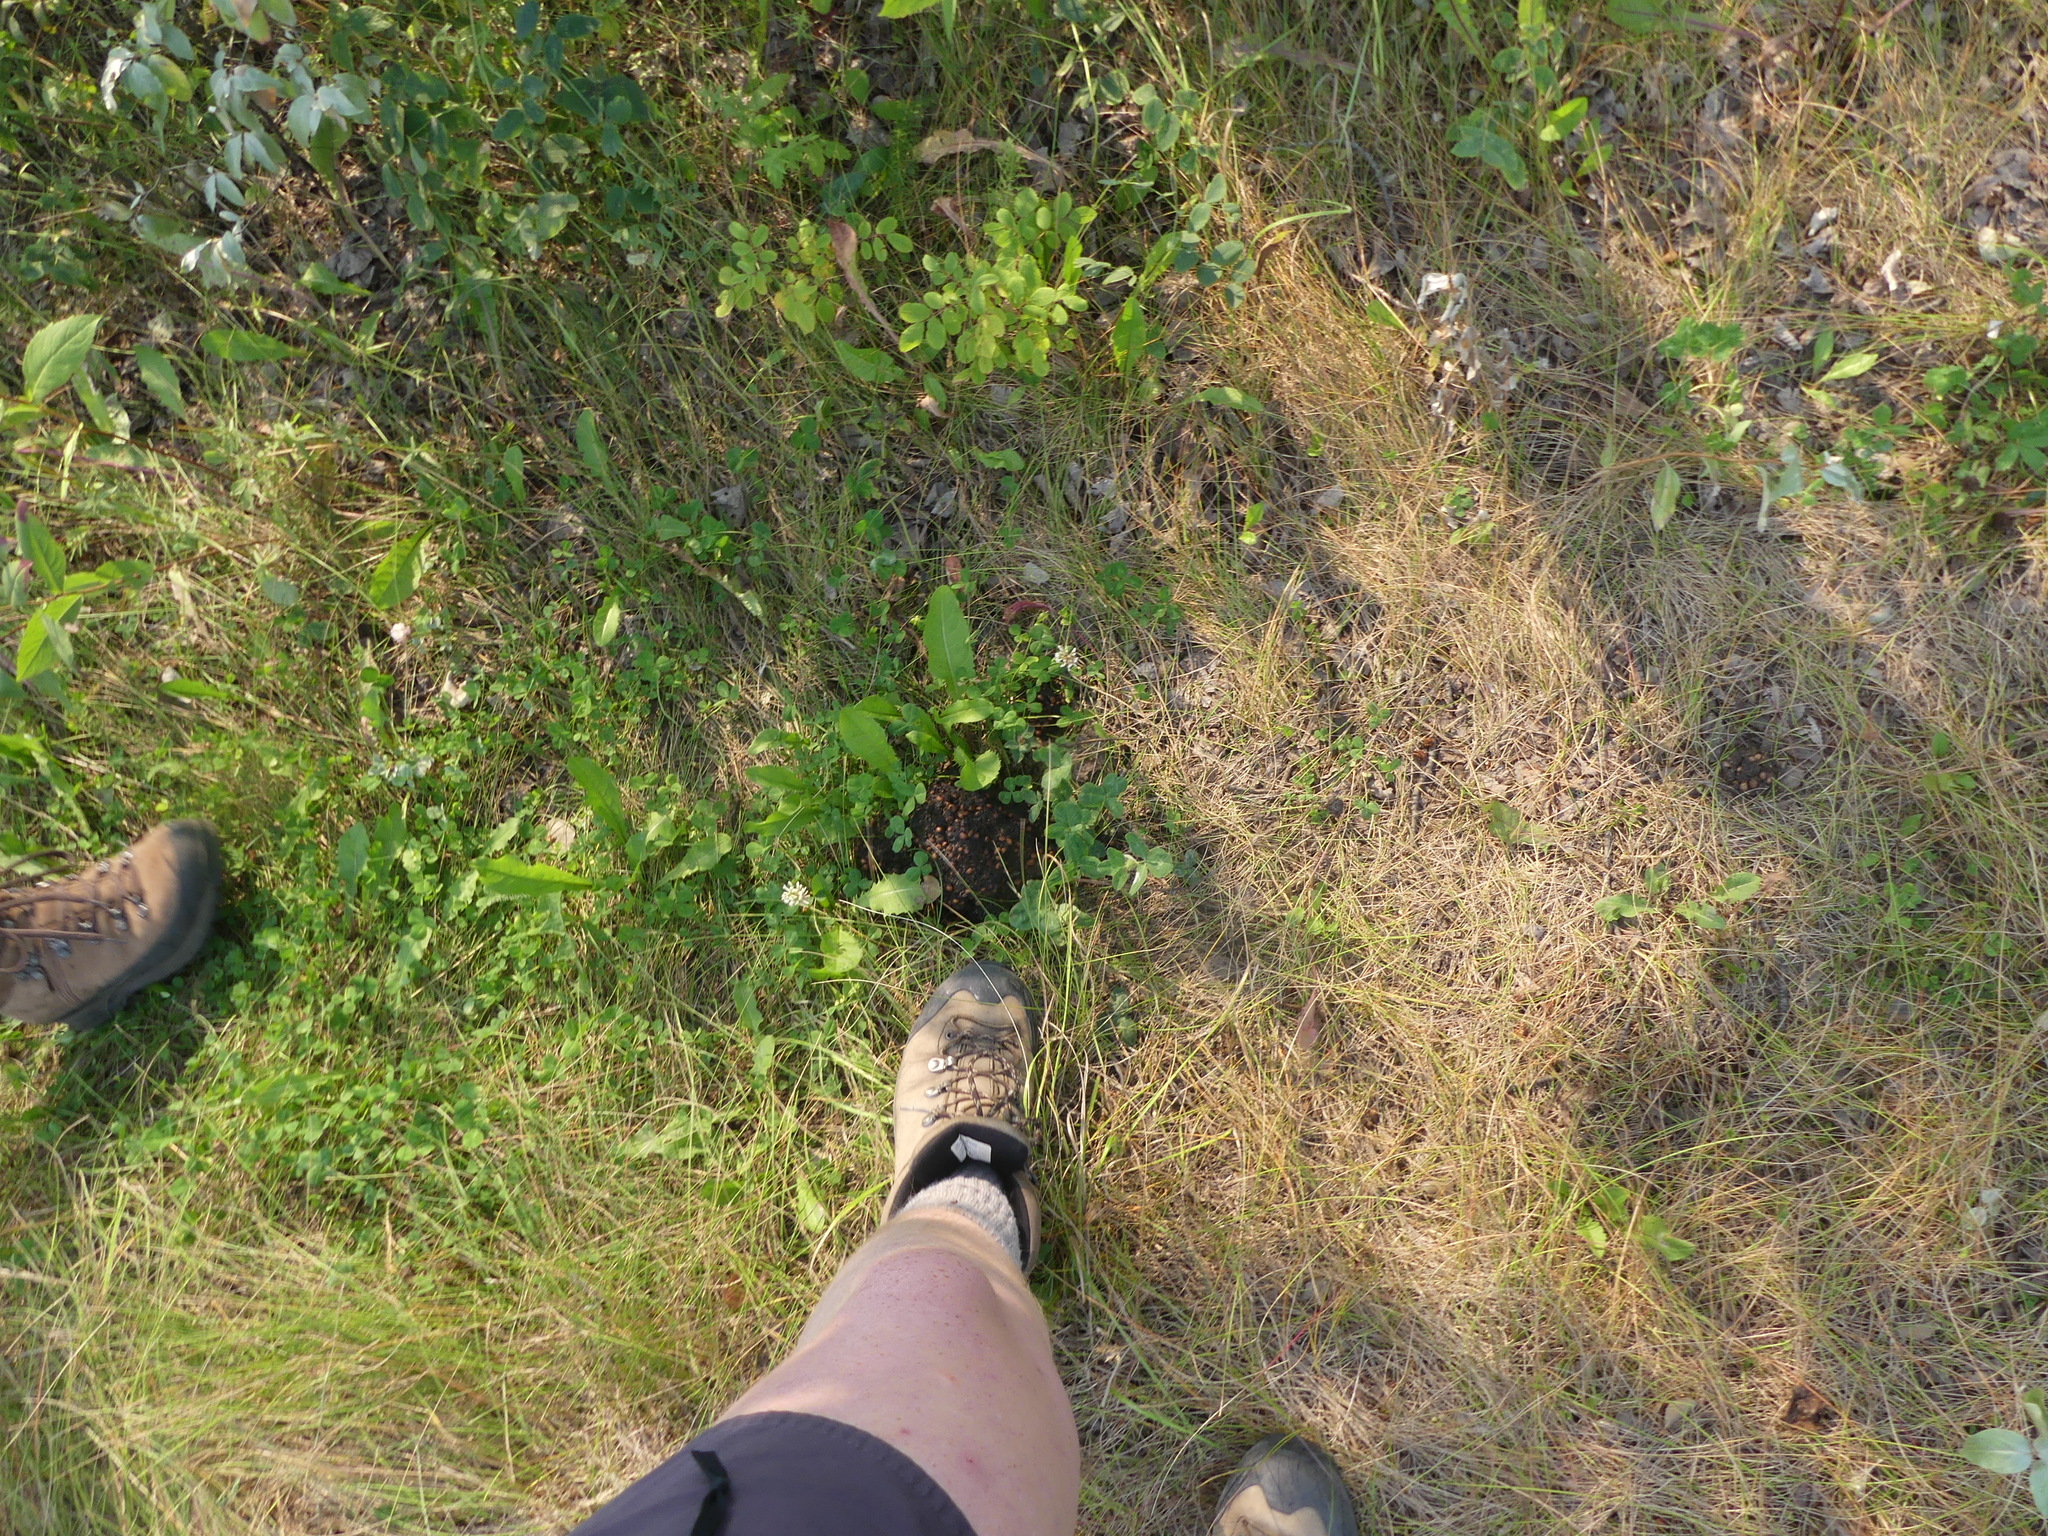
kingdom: Animalia
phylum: Chordata
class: Mammalia
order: Carnivora
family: Ursidae
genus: Ursus
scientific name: Ursus americanus
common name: American black bear
